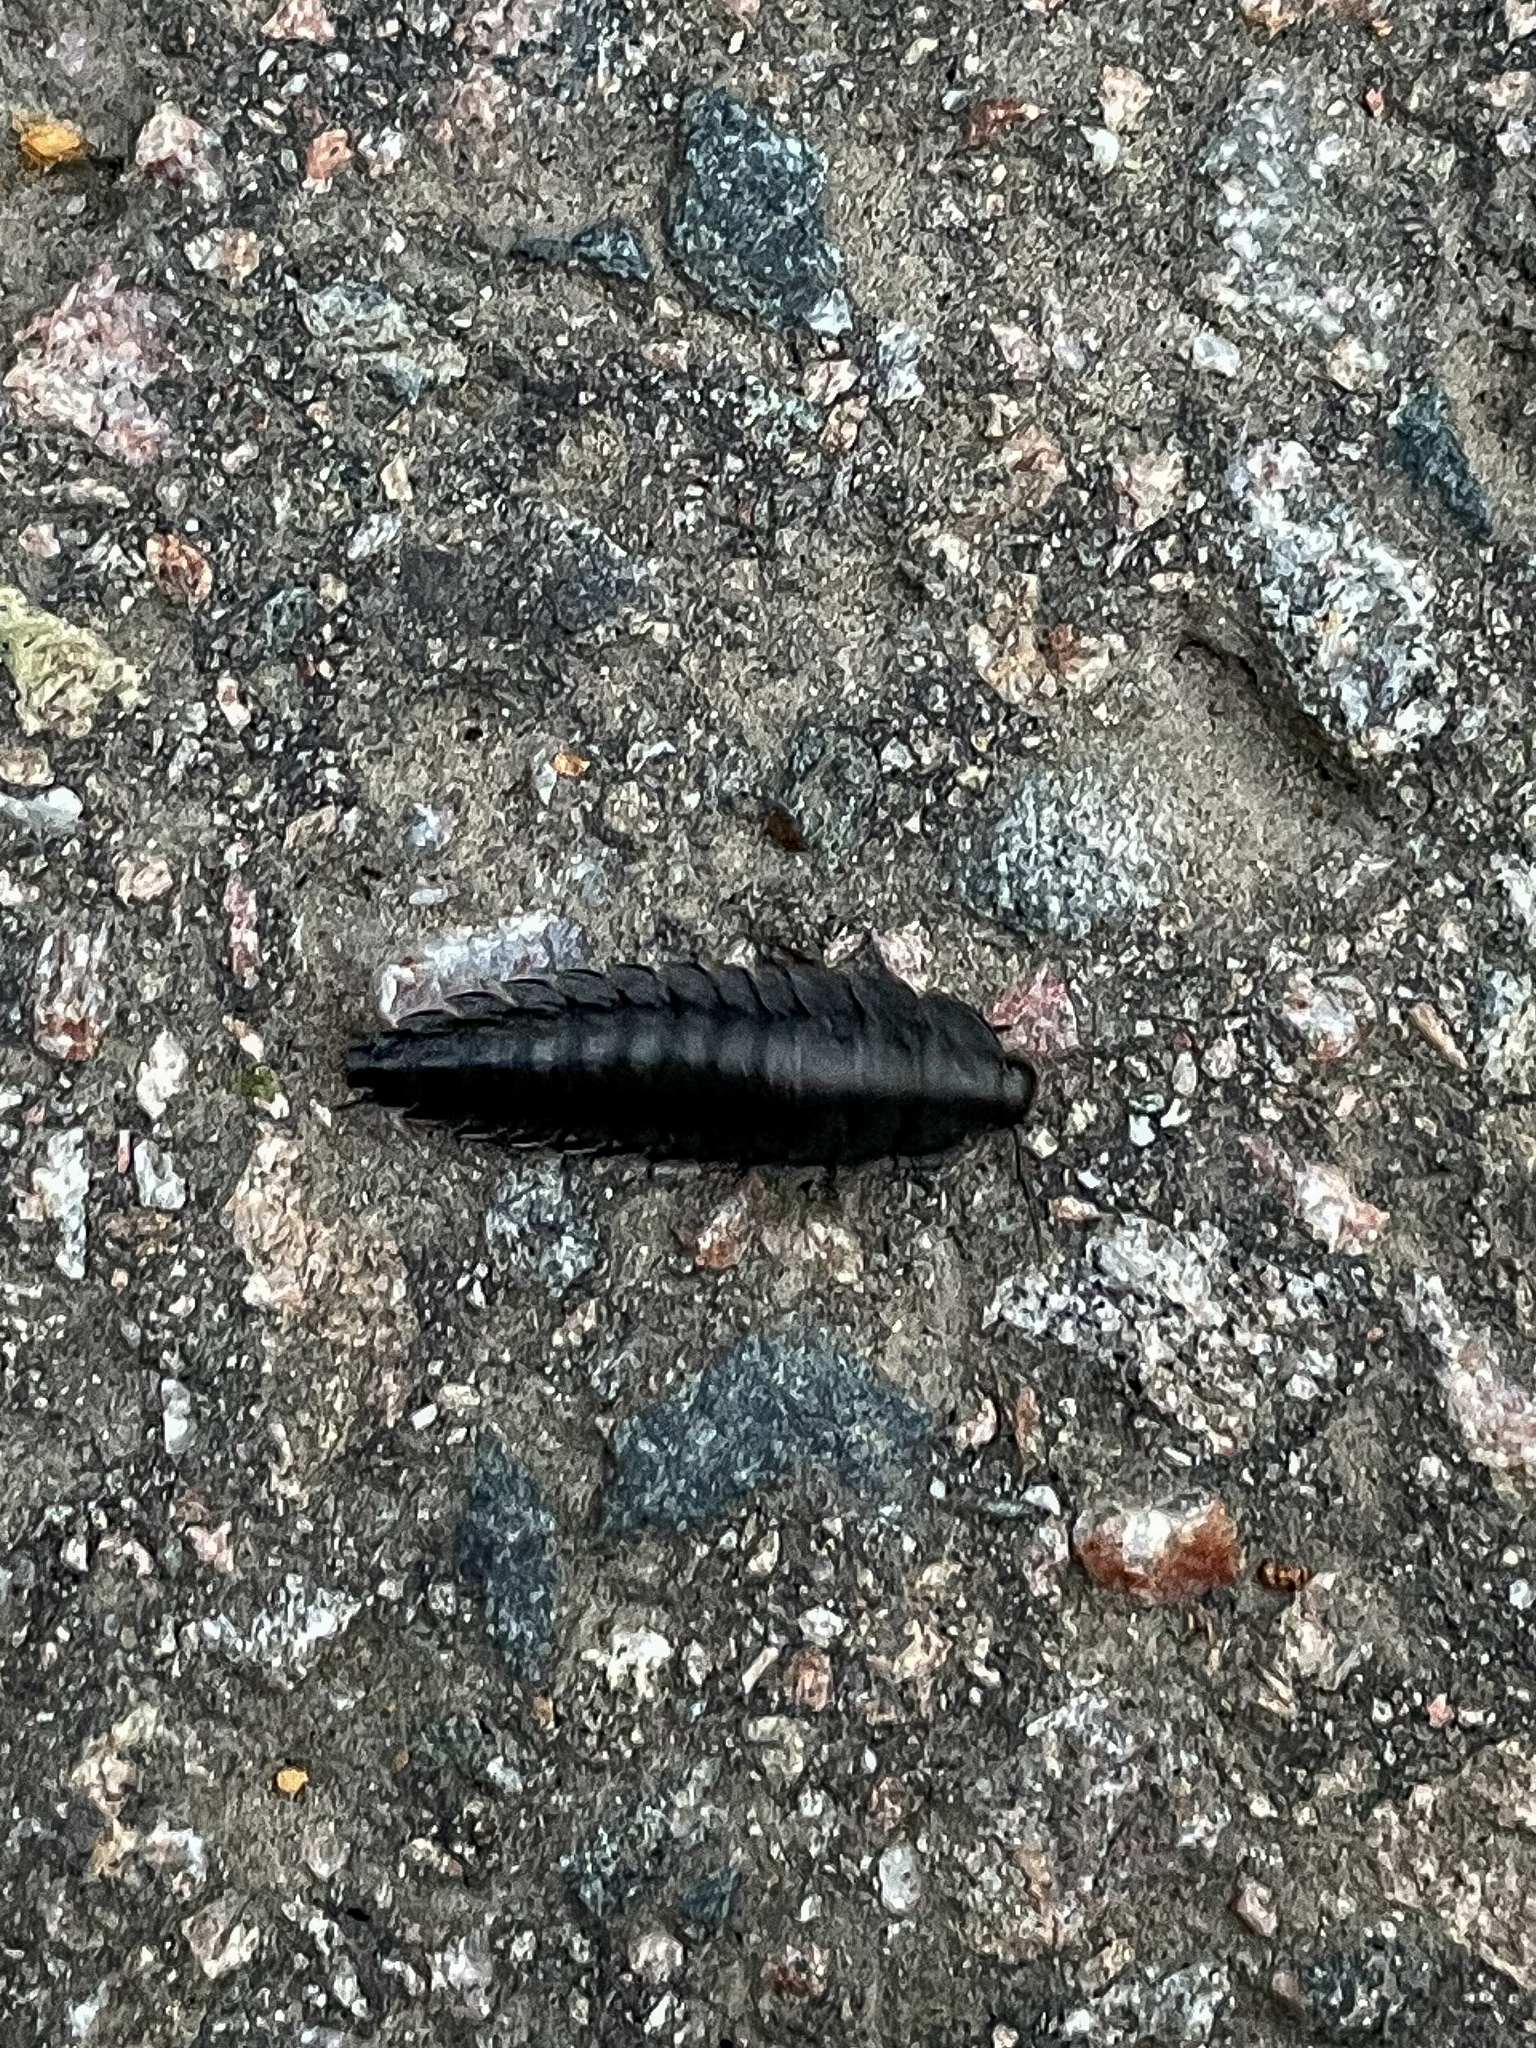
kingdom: Animalia
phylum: Arthropoda
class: Insecta
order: Coleoptera
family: Staphylinidae
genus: Silpha
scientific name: Silpha carinata
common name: Silphid beetle
